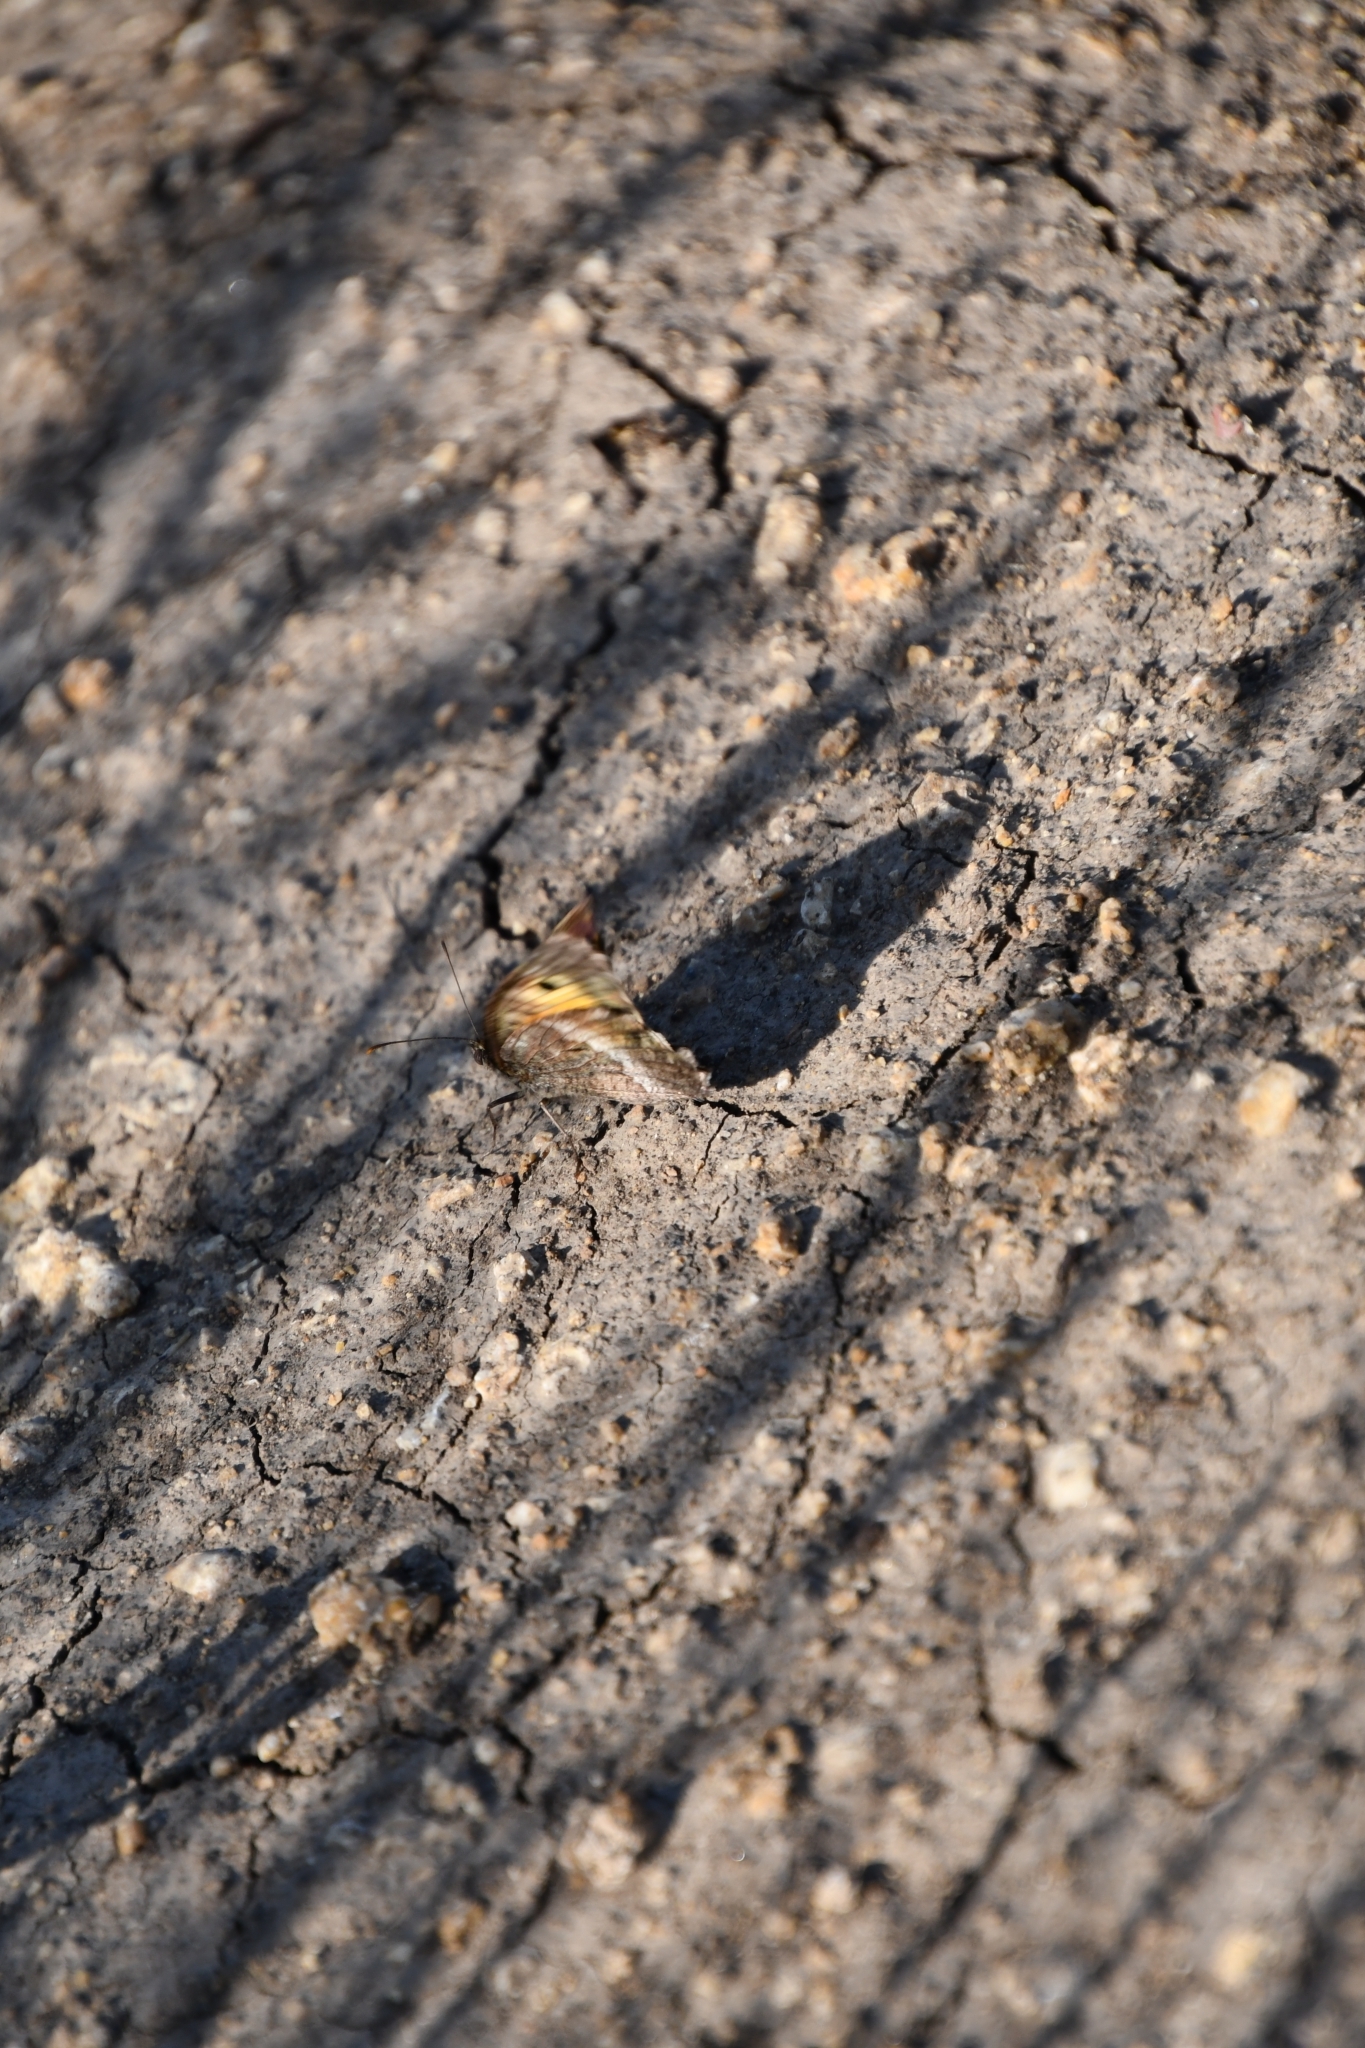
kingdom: Animalia
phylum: Arthropoda
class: Insecta
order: Lepidoptera
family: Nymphalidae
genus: Arethusana
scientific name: Arethusana arethusa
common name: False grayling
